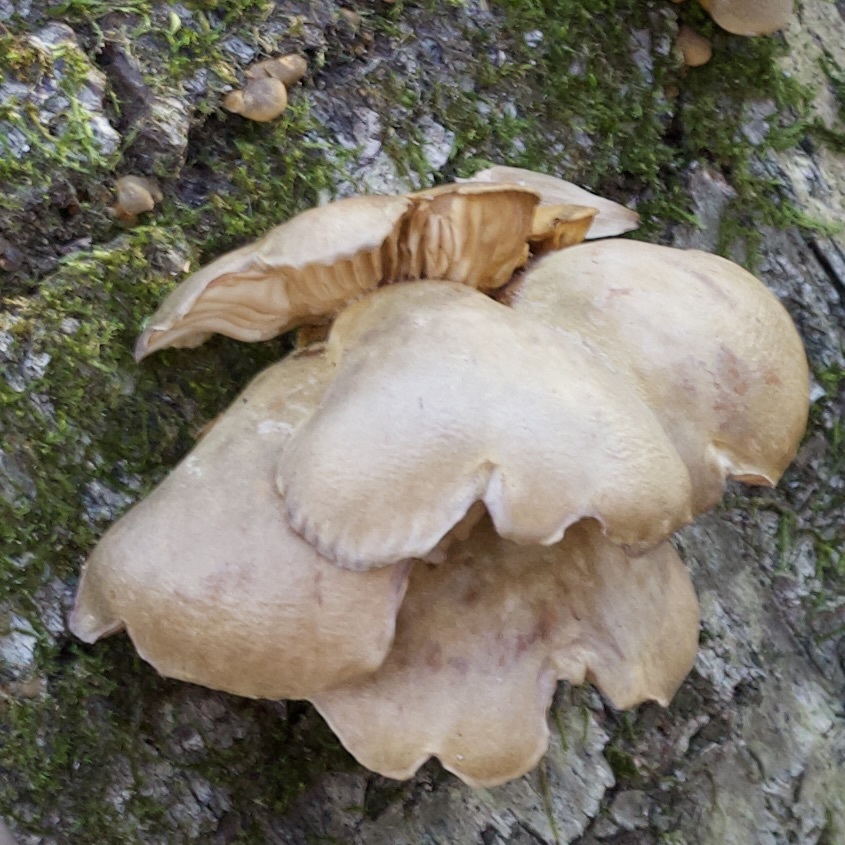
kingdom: Fungi
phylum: Basidiomycota
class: Agaricomycetes
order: Agaricales
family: Sarcomyxaceae
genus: Sarcomyxa
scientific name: Sarcomyxa serotina
